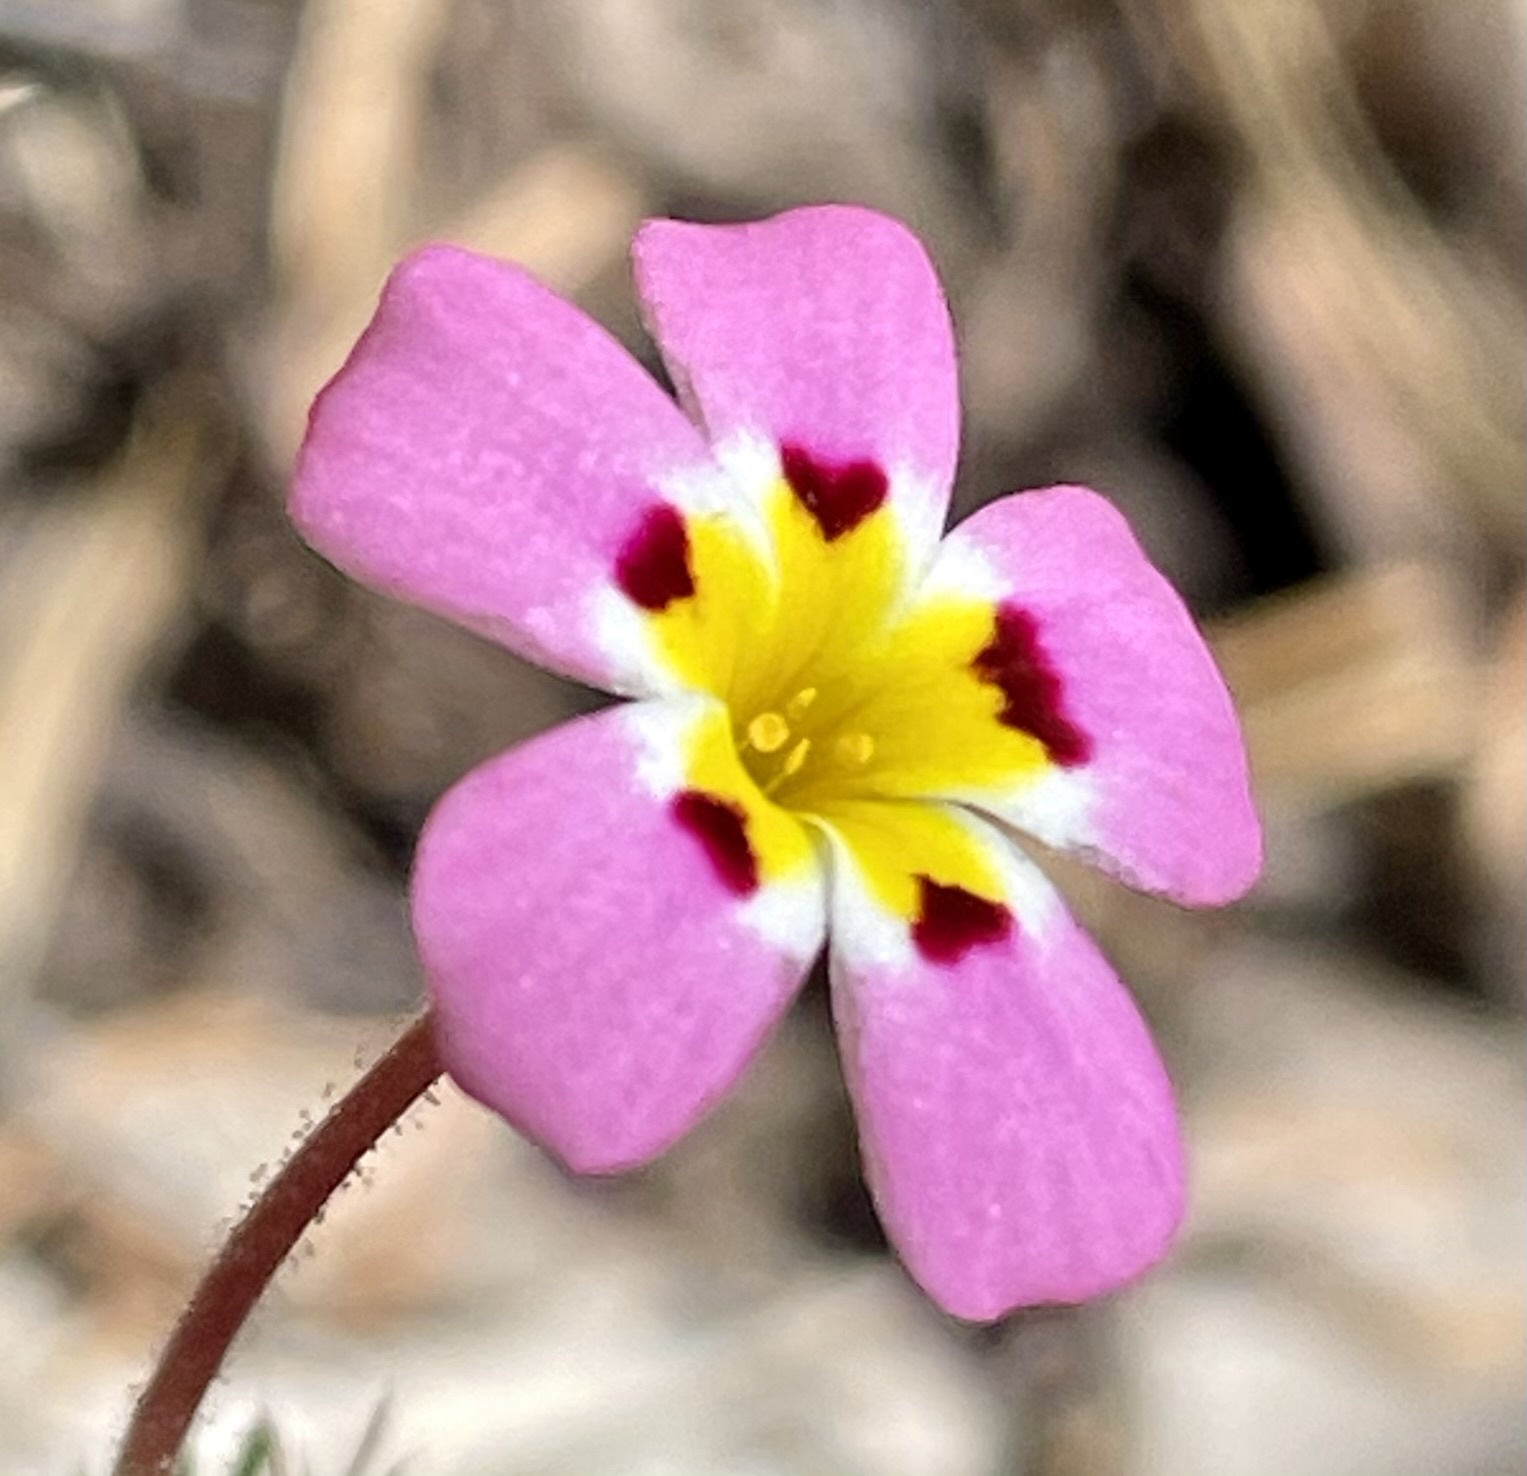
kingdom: Plantae
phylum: Tracheophyta
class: Magnoliopsida
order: Ericales
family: Polemoniaceae
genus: Leptosiphon
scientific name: Leptosiphon ciliatus
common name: Whiskerbrush
